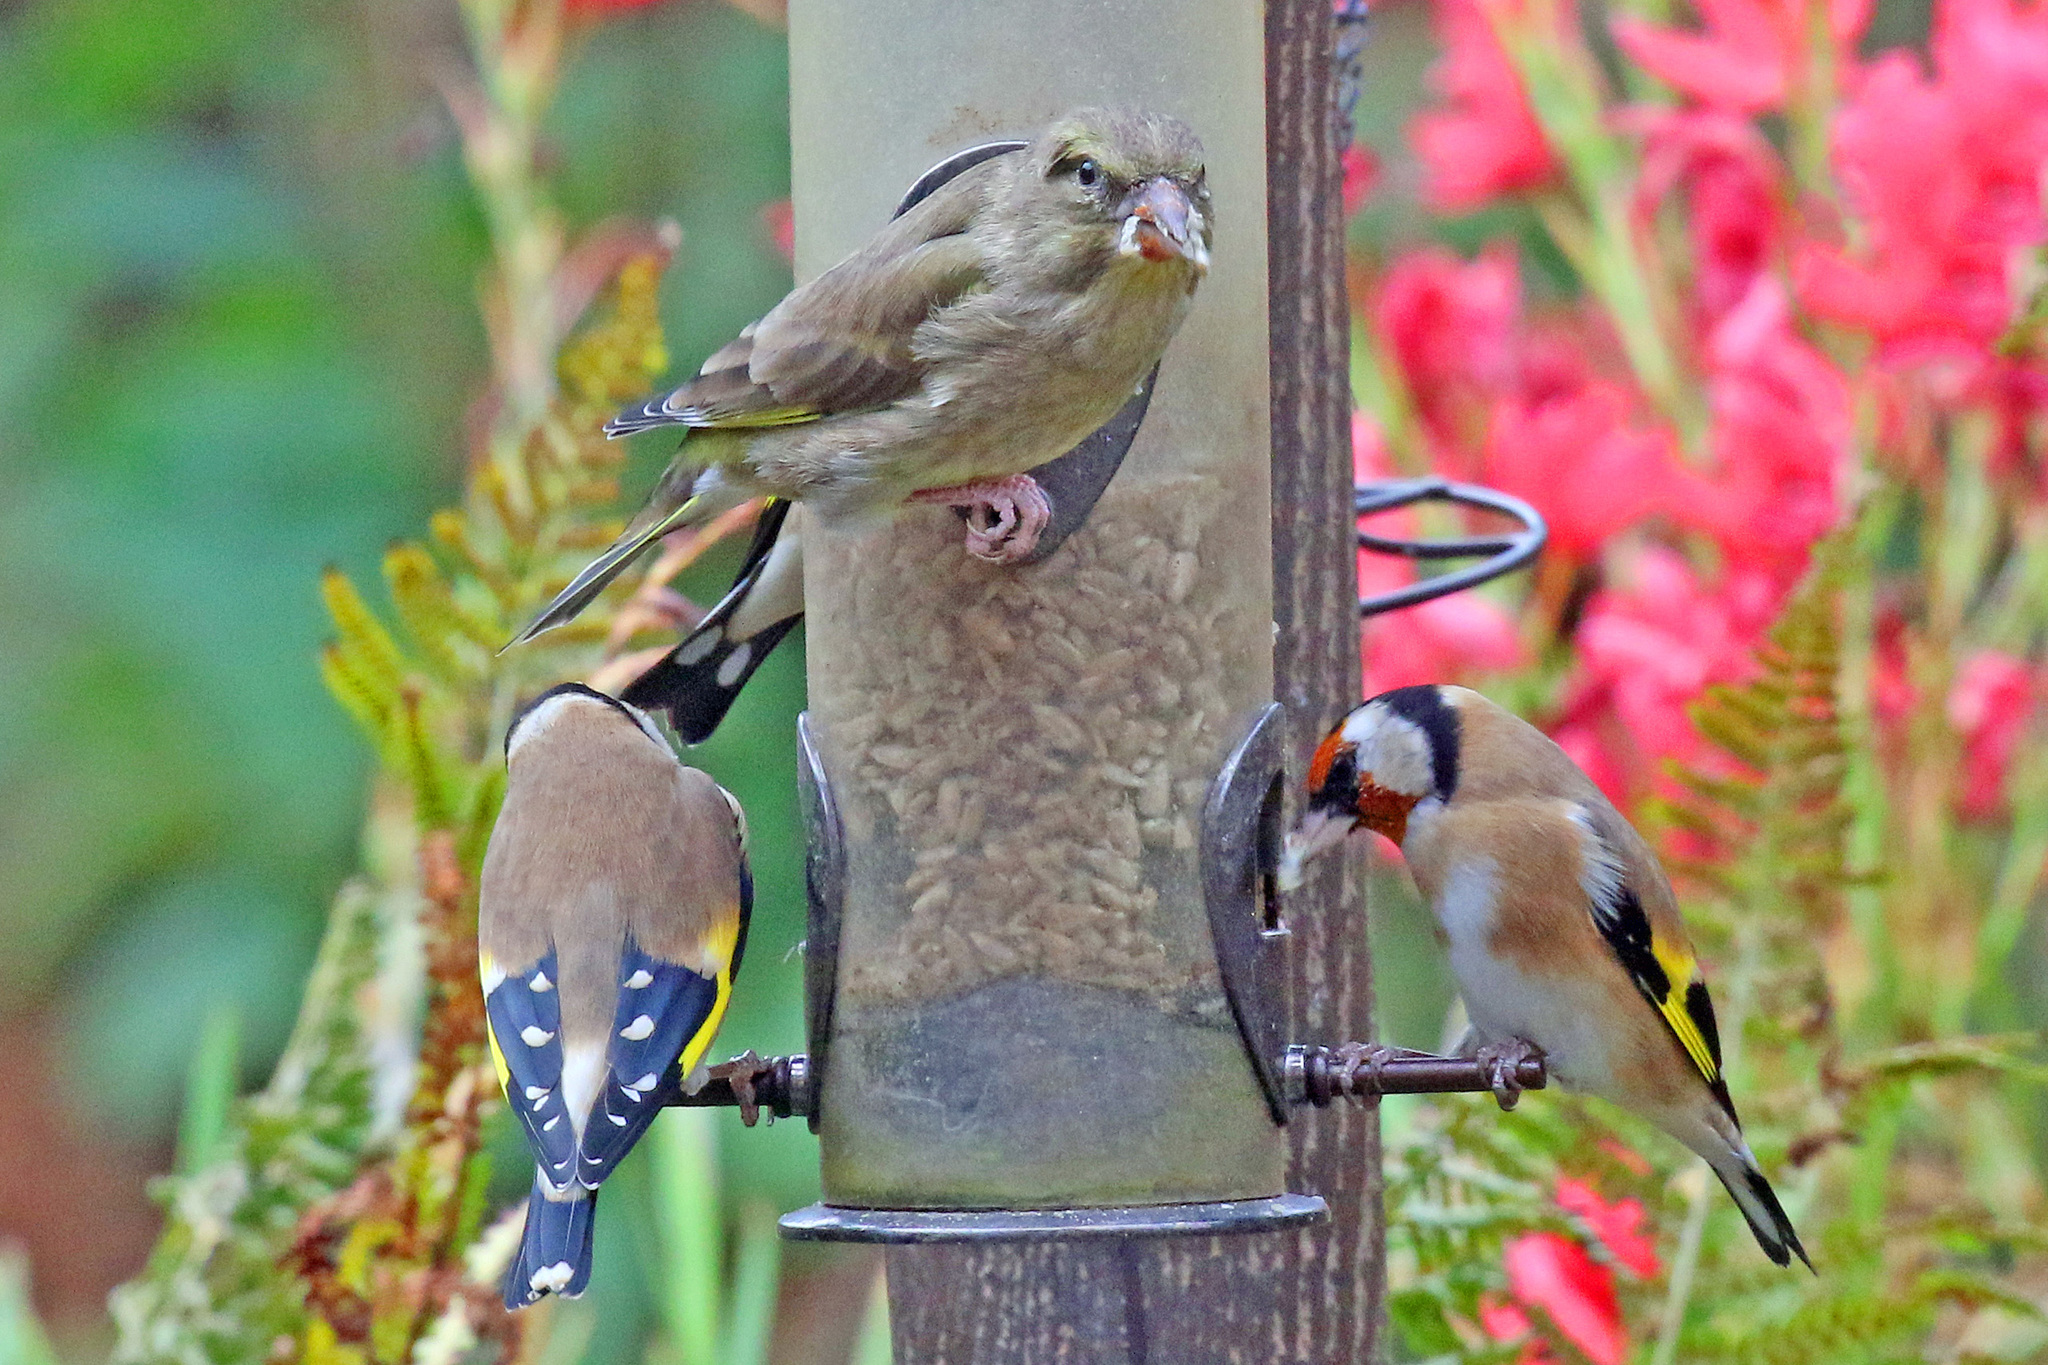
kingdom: Plantae
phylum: Tracheophyta
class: Liliopsida
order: Poales
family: Poaceae
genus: Chloris
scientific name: Chloris chloris
